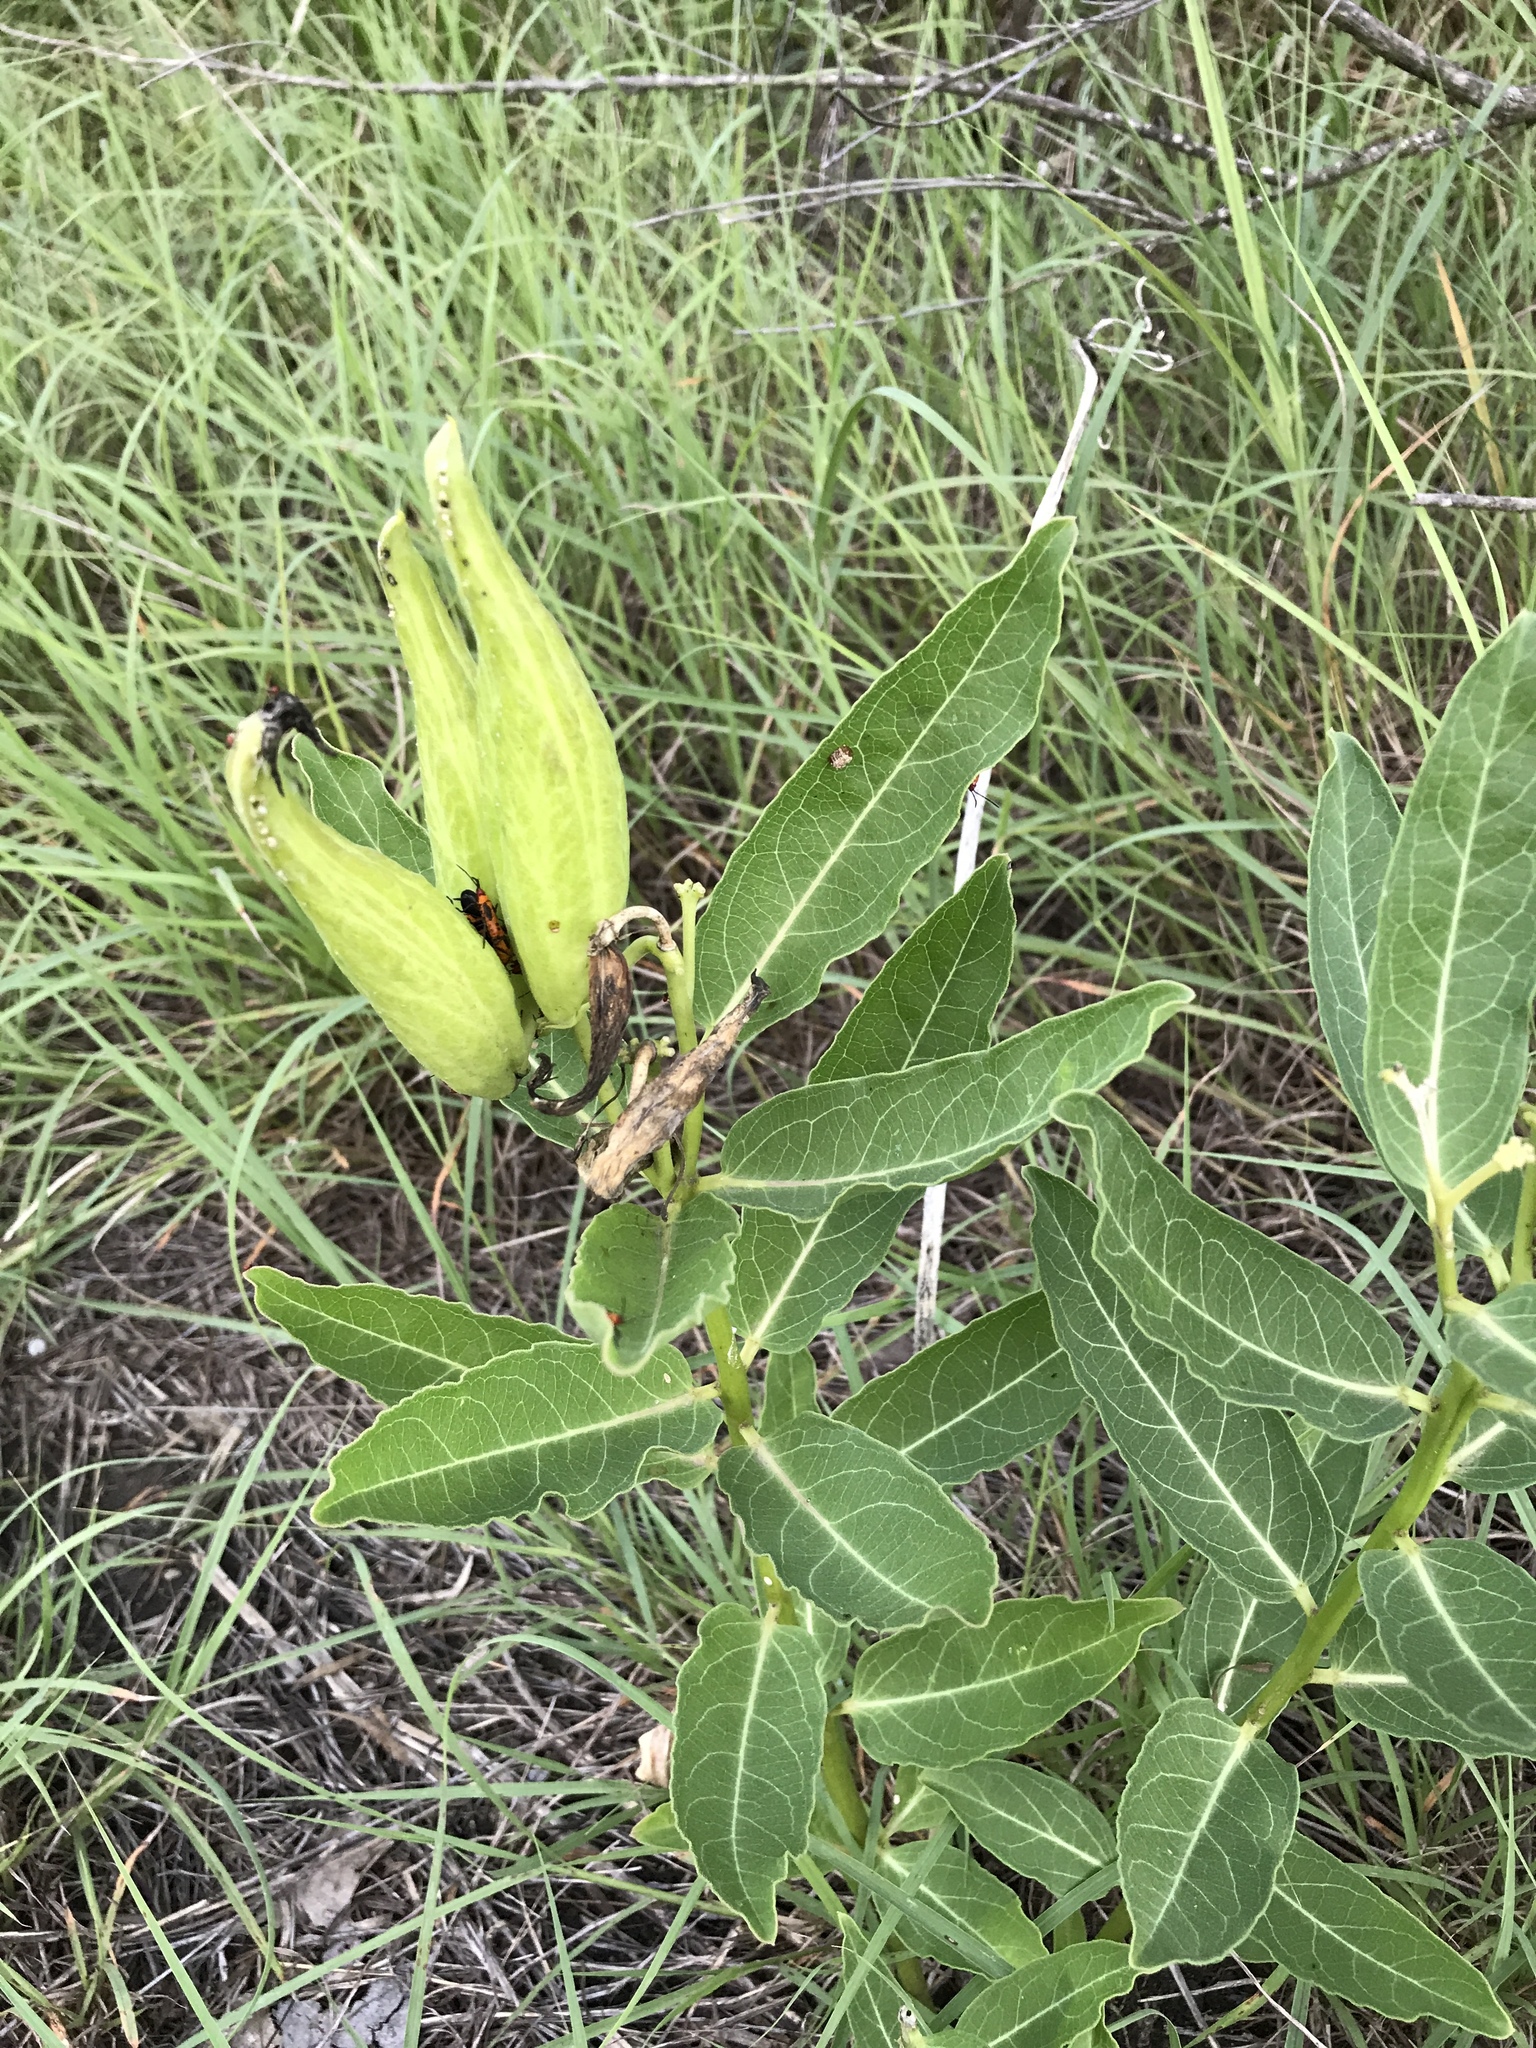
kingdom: Plantae
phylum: Tracheophyta
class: Magnoliopsida
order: Gentianales
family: Apocynaceae
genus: Asclepias
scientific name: Asclepias viridis
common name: Antelope-horns
